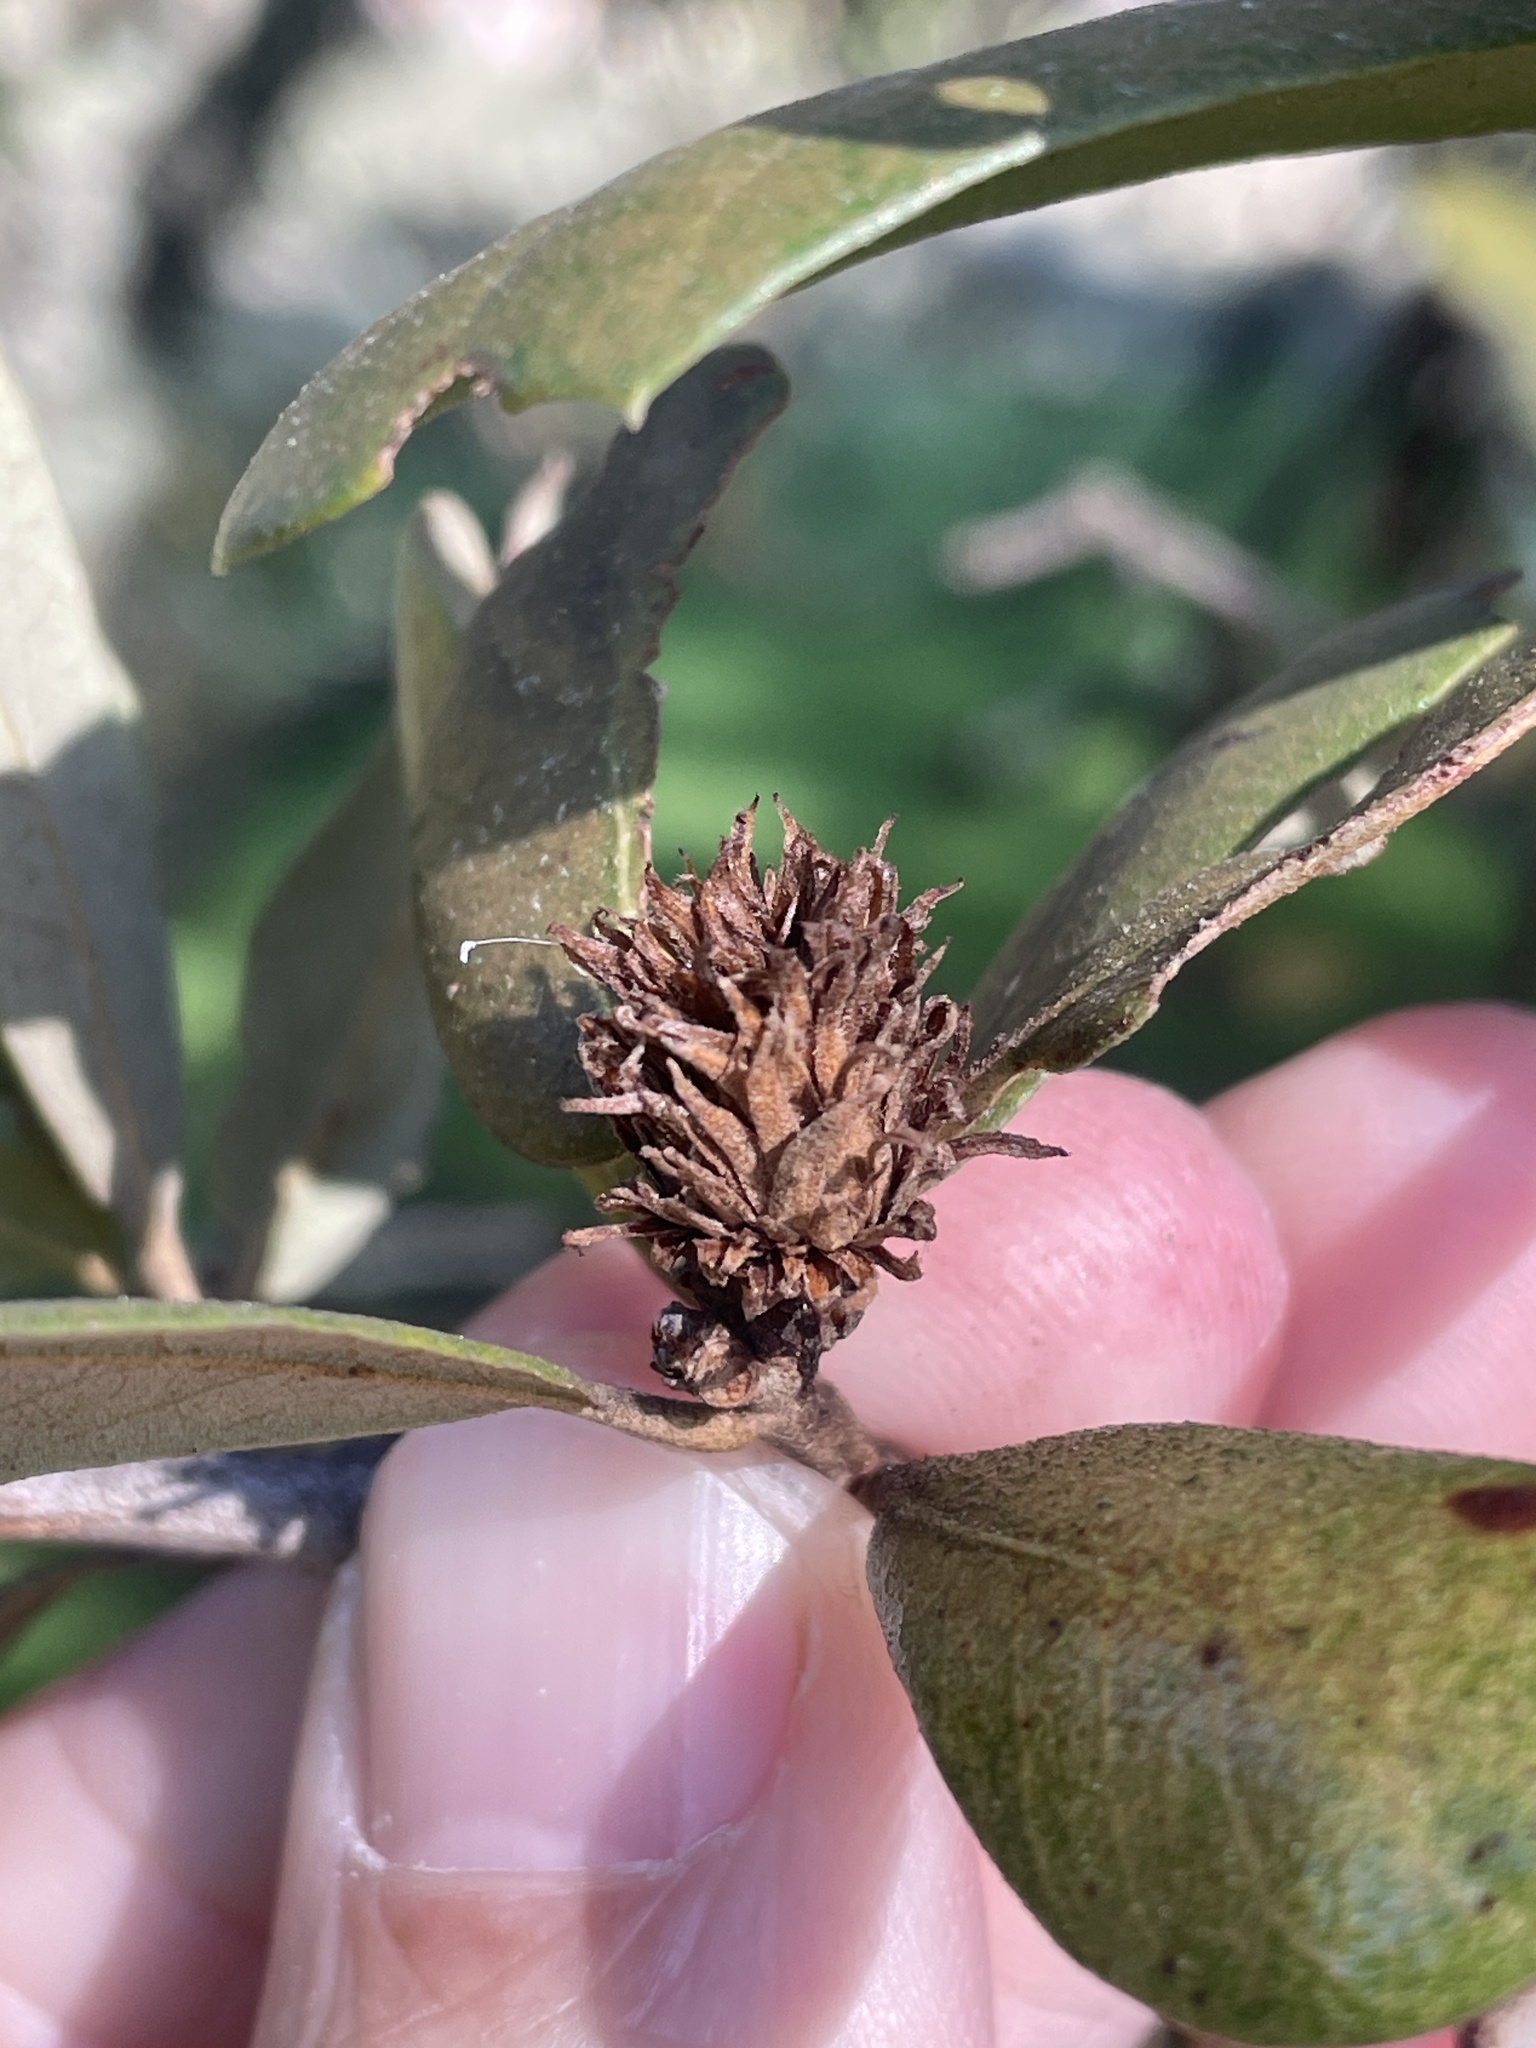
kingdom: Animalia
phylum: Arthropoda
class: Insecta
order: Hymenoptera
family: Cynipidae
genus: Andricus
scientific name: Andricus quercusfoliatus
